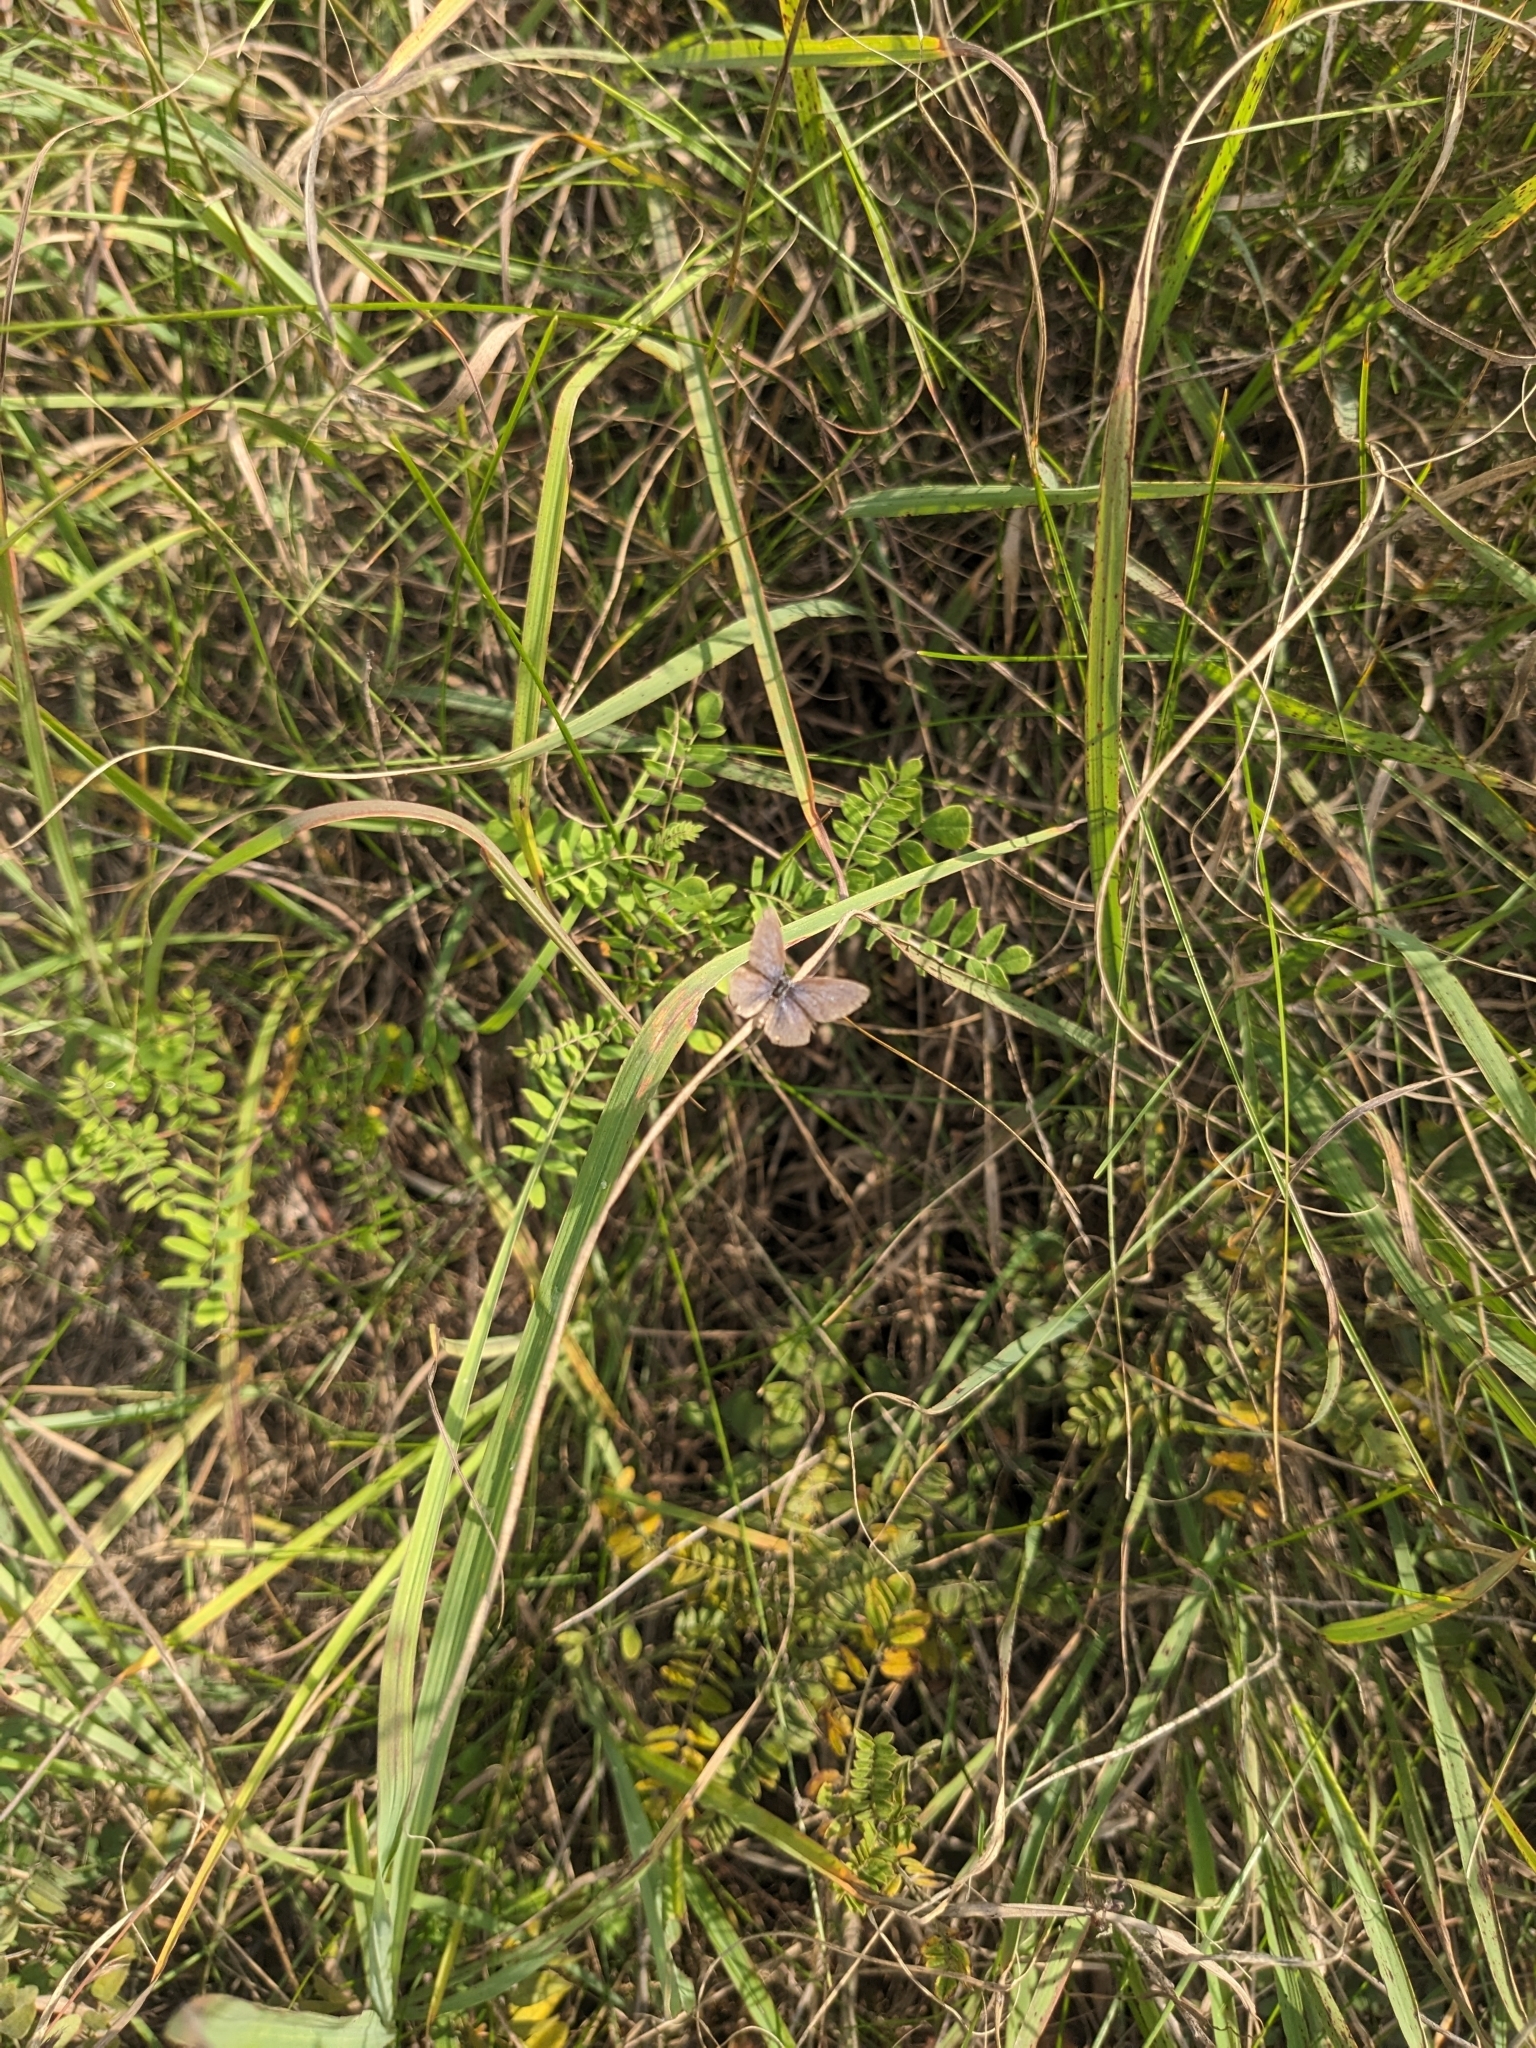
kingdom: Animalia
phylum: Arthropoda
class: Insecta
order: Lepidoptera
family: Lycaenidae
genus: Elkalyce
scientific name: Elkalyce comyntas
